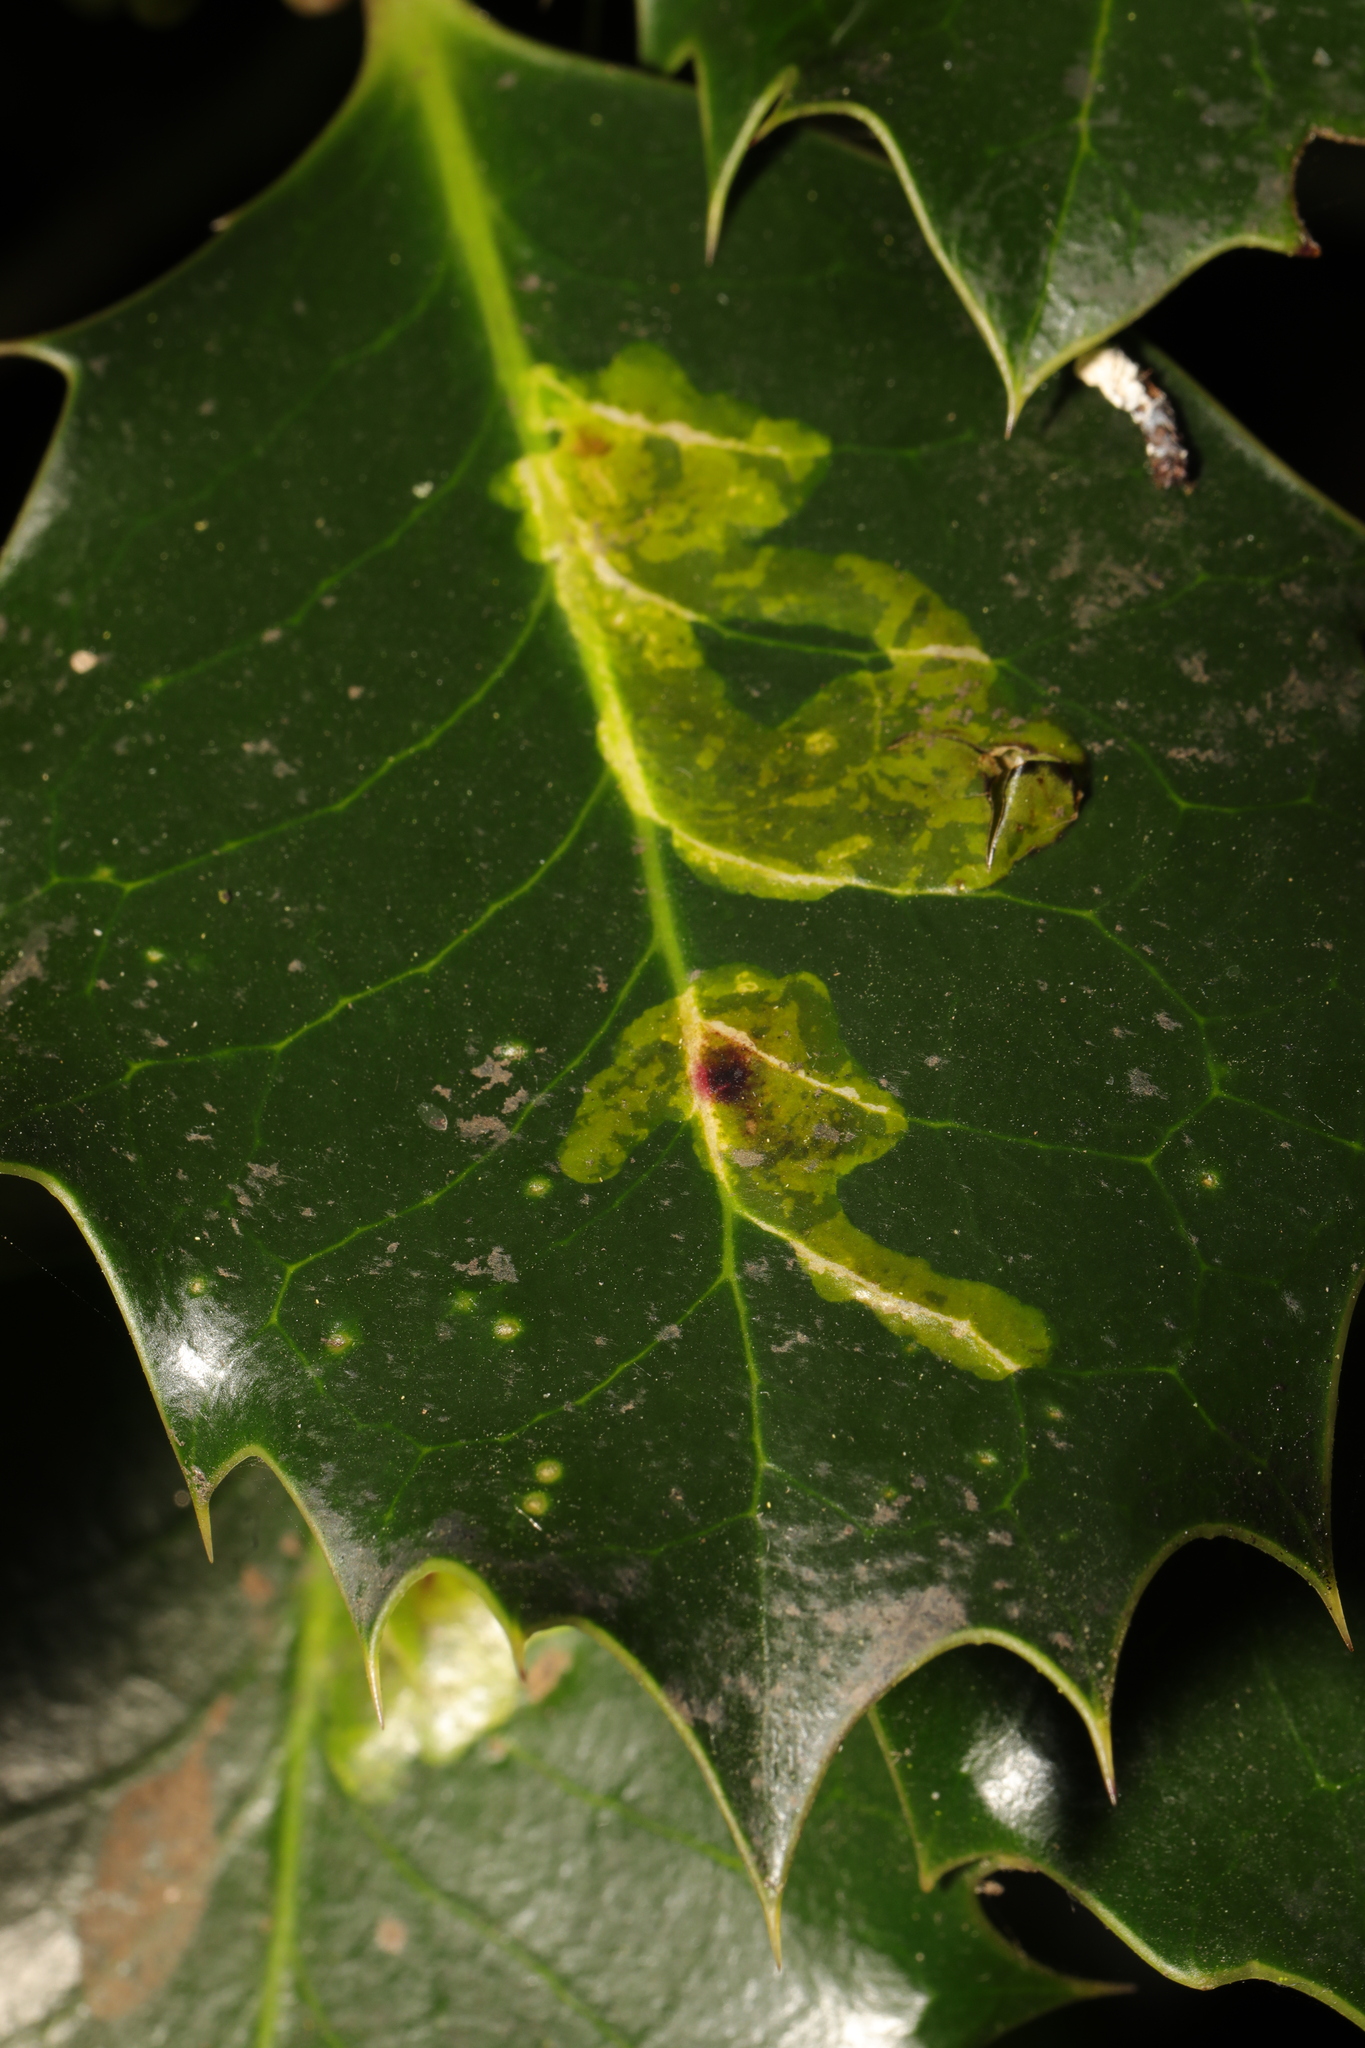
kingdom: Animalia
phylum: Arthropoda
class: Insecta
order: Diptera
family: Agromyzidae
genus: Phytomyza
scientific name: Phytomyza ilicis
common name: Holly leafminer
